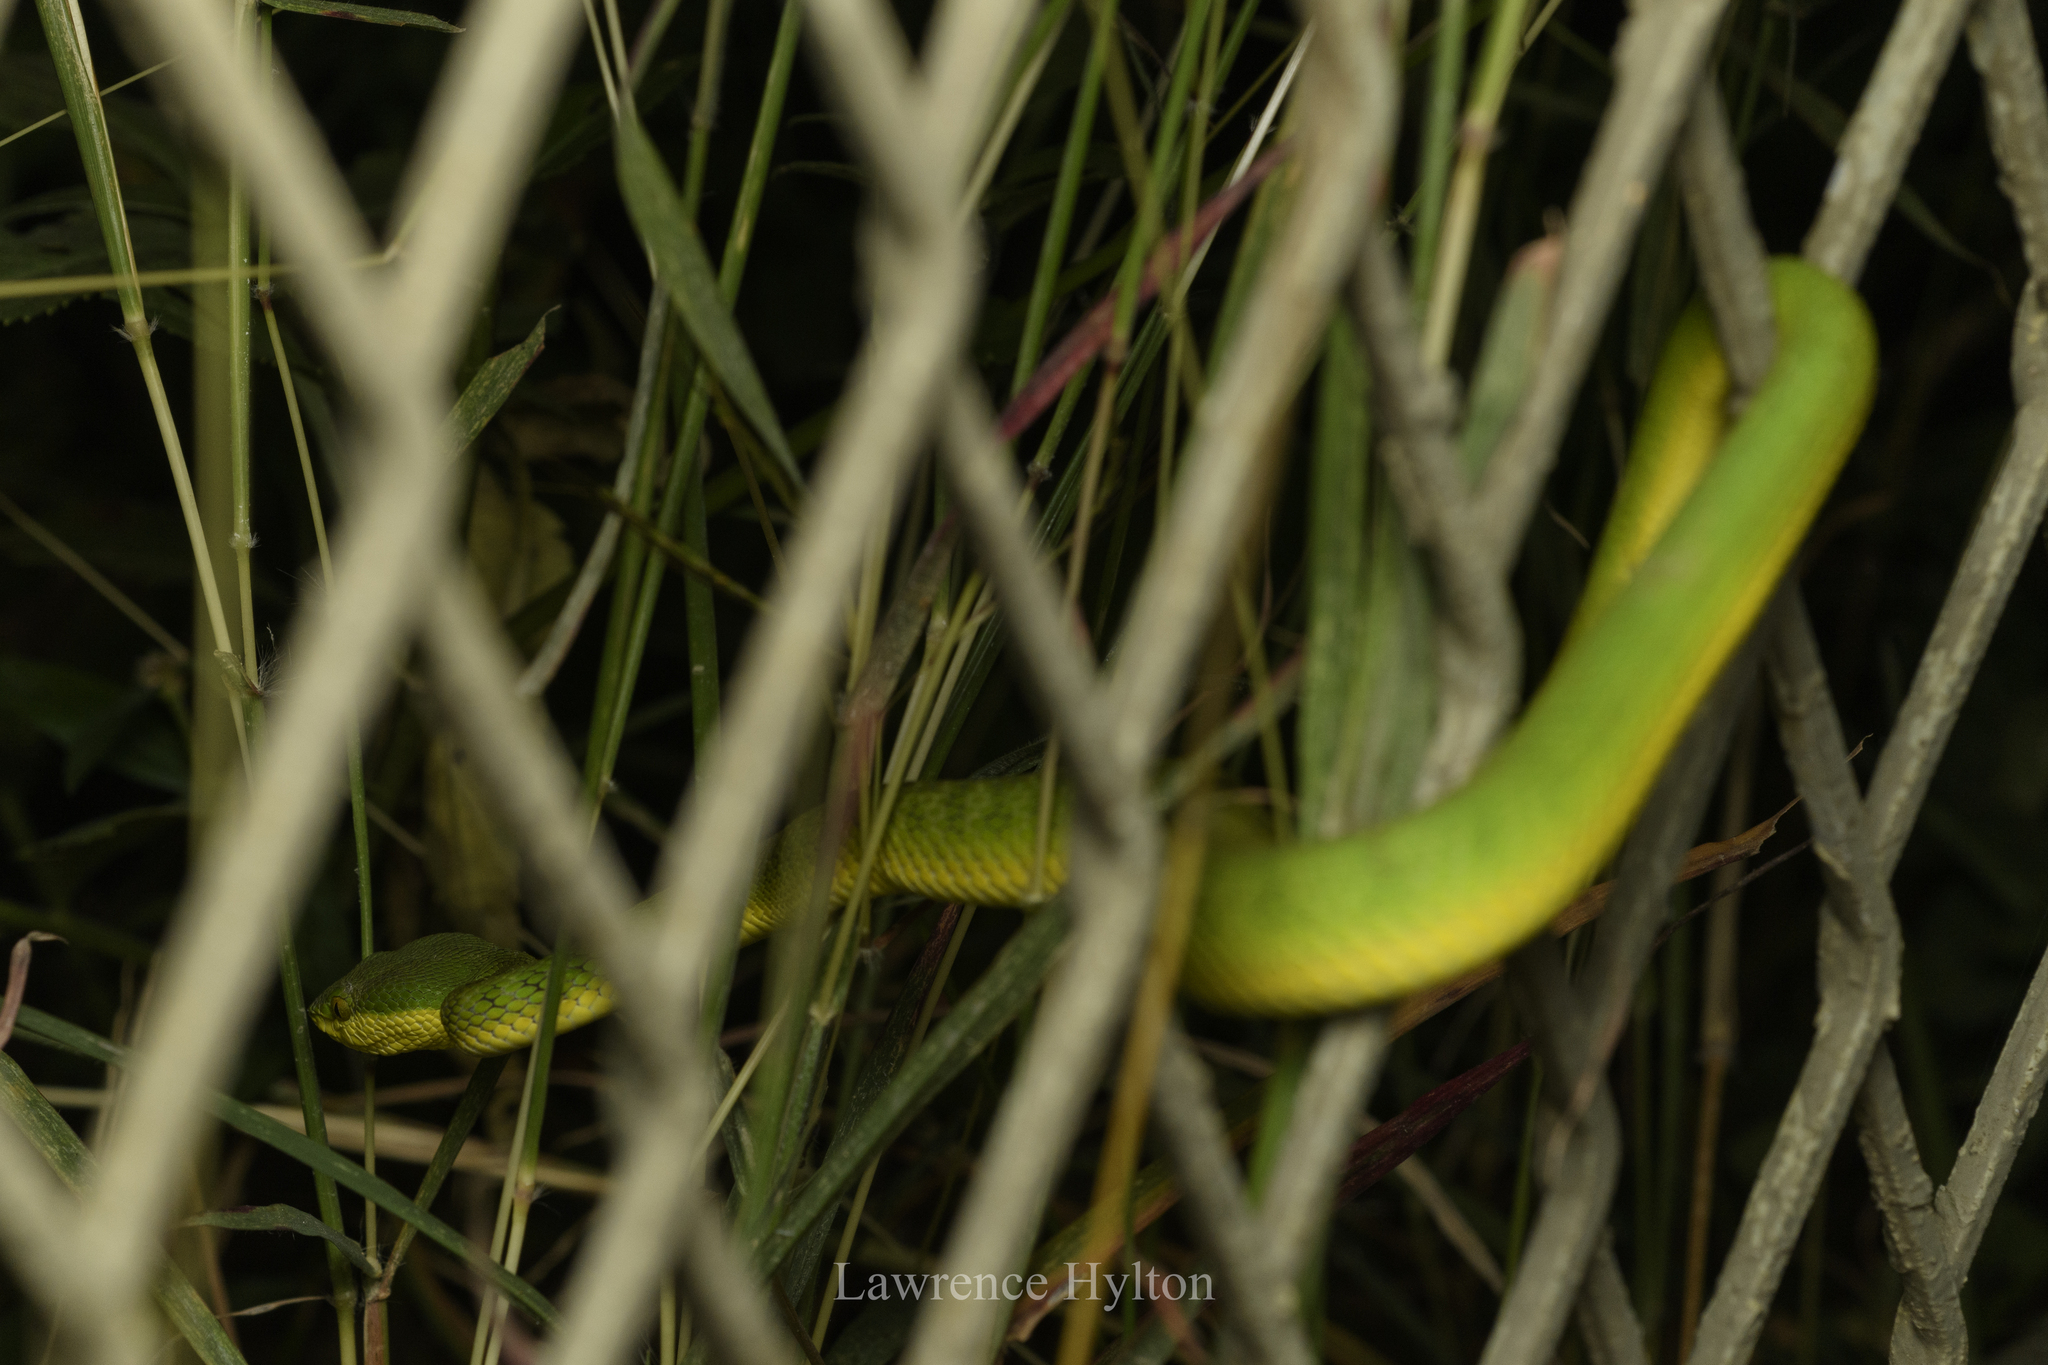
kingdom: Animalia
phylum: Chordata
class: Squamata
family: Viperidae
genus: Trimeresurus
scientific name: Trimeresurus albolabris
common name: White-lipped pitviper
